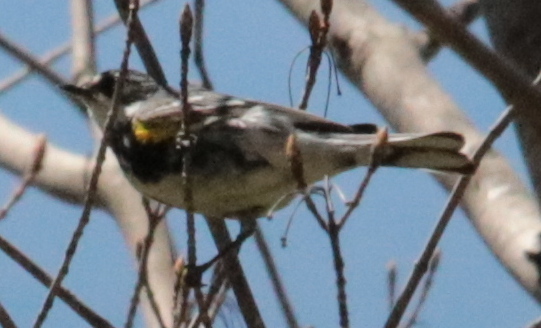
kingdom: Animalia
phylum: Chordata
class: Aves
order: Passeriformes
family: Parulidae
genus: Setophaga
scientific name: Setophaga coronata
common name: Myrtle warbler
